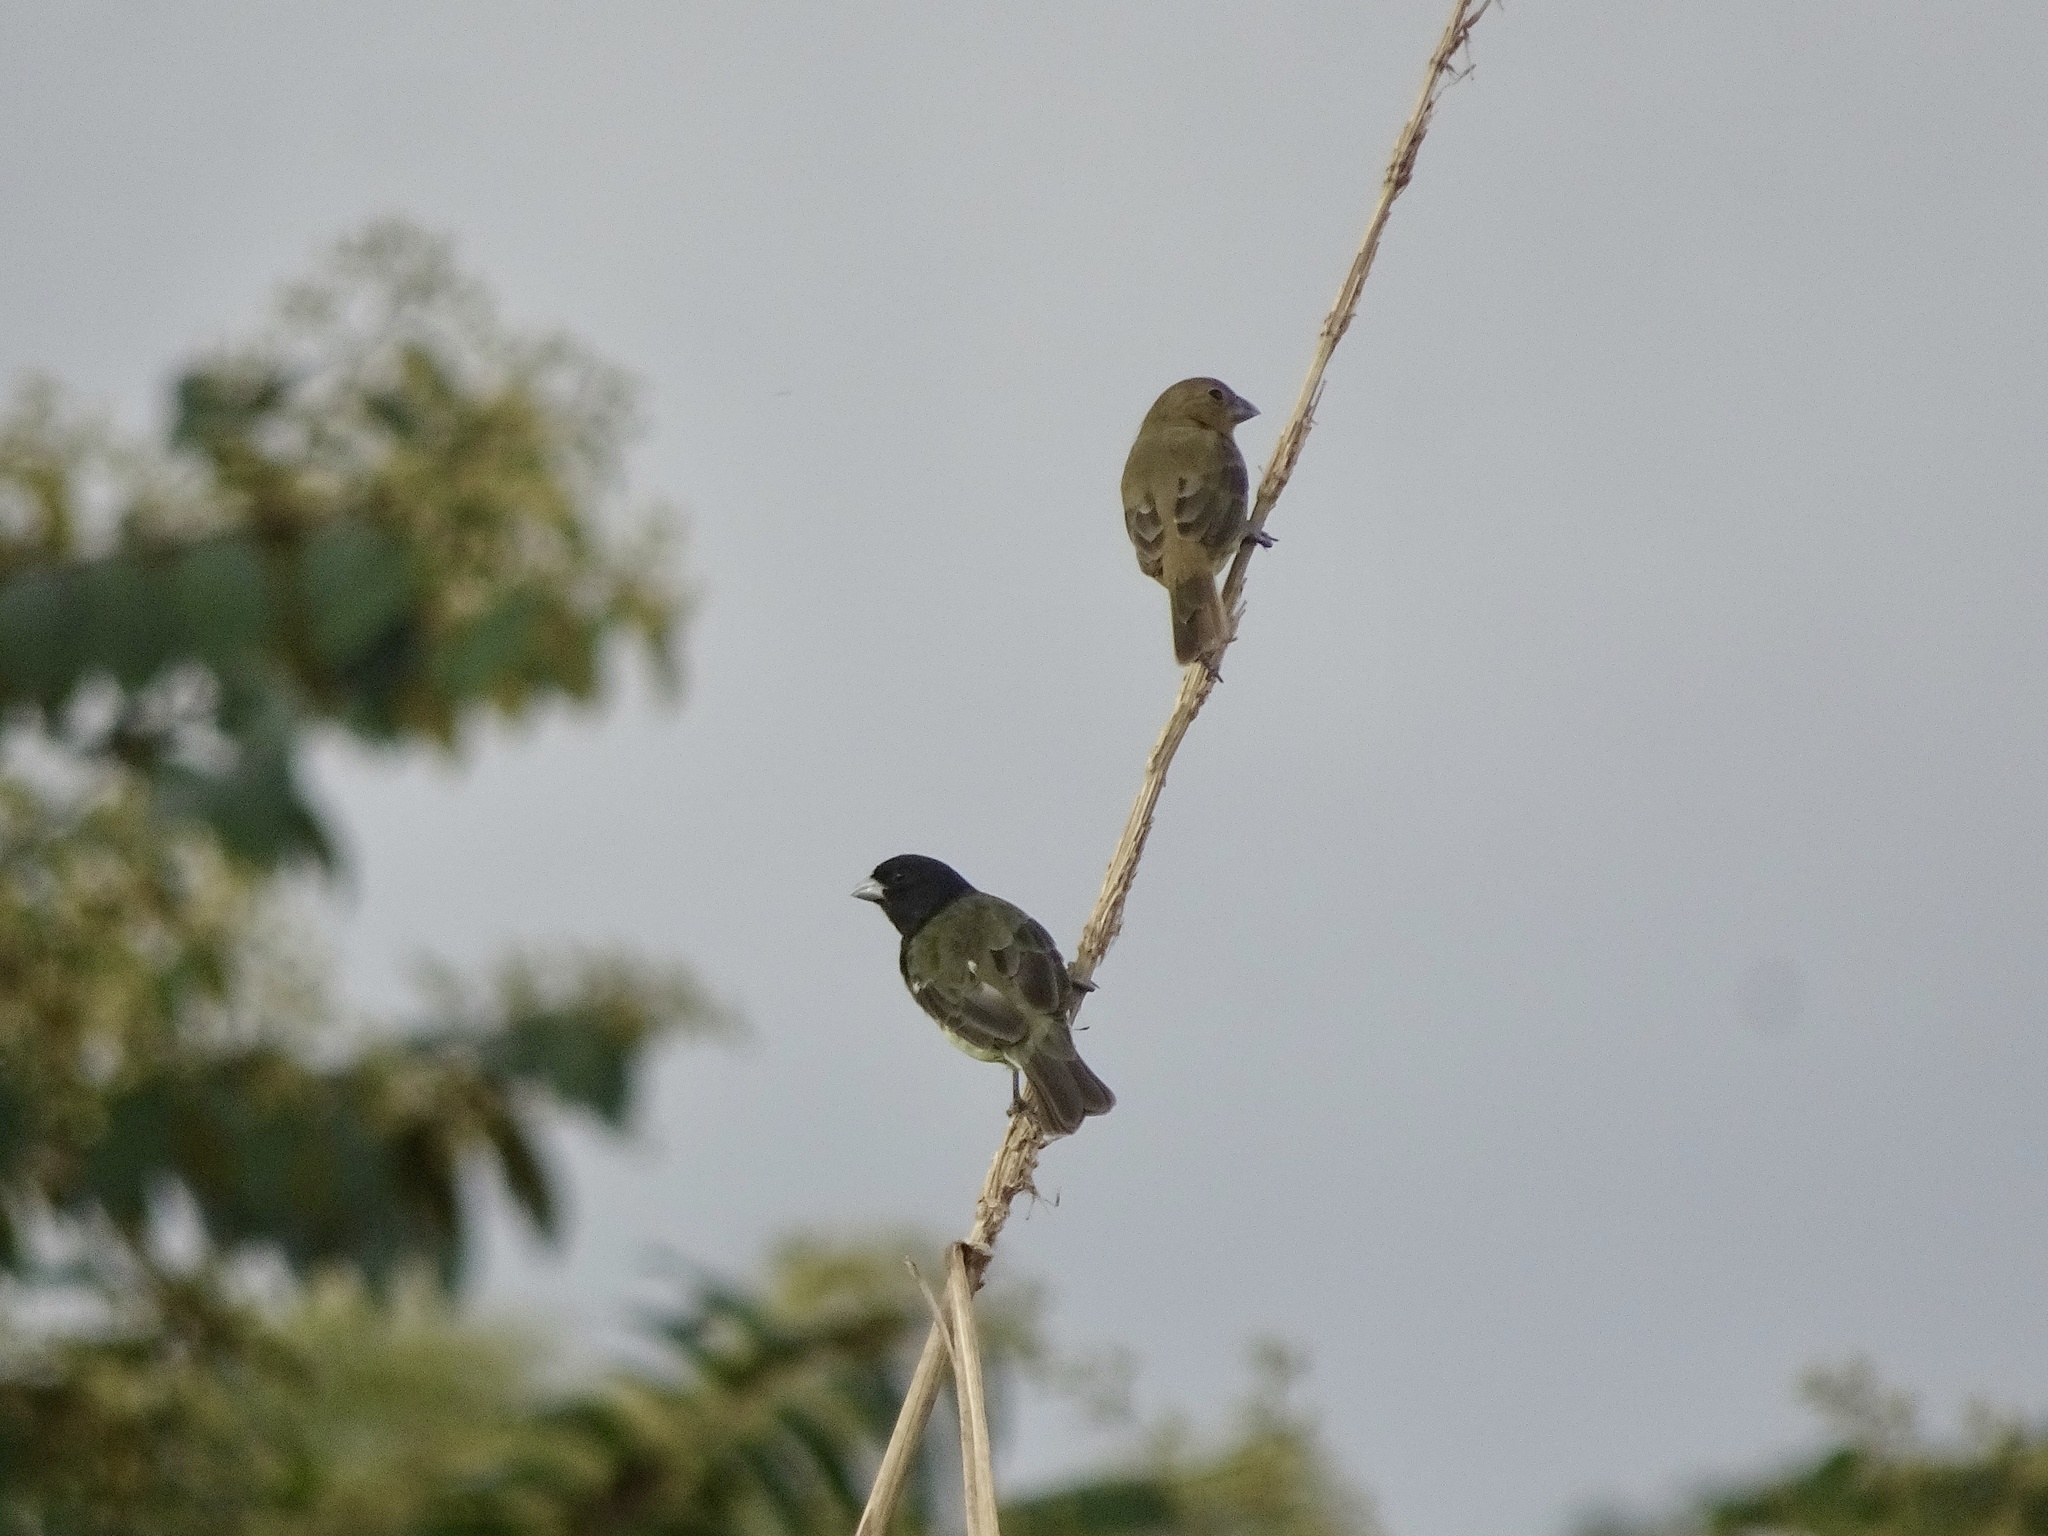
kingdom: Animalia
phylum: Chordata
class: Aves
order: Passeriformes
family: Thraupidae
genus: Sporophila
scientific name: Sporophila nigricollis
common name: Yellow-bellied seedeater
